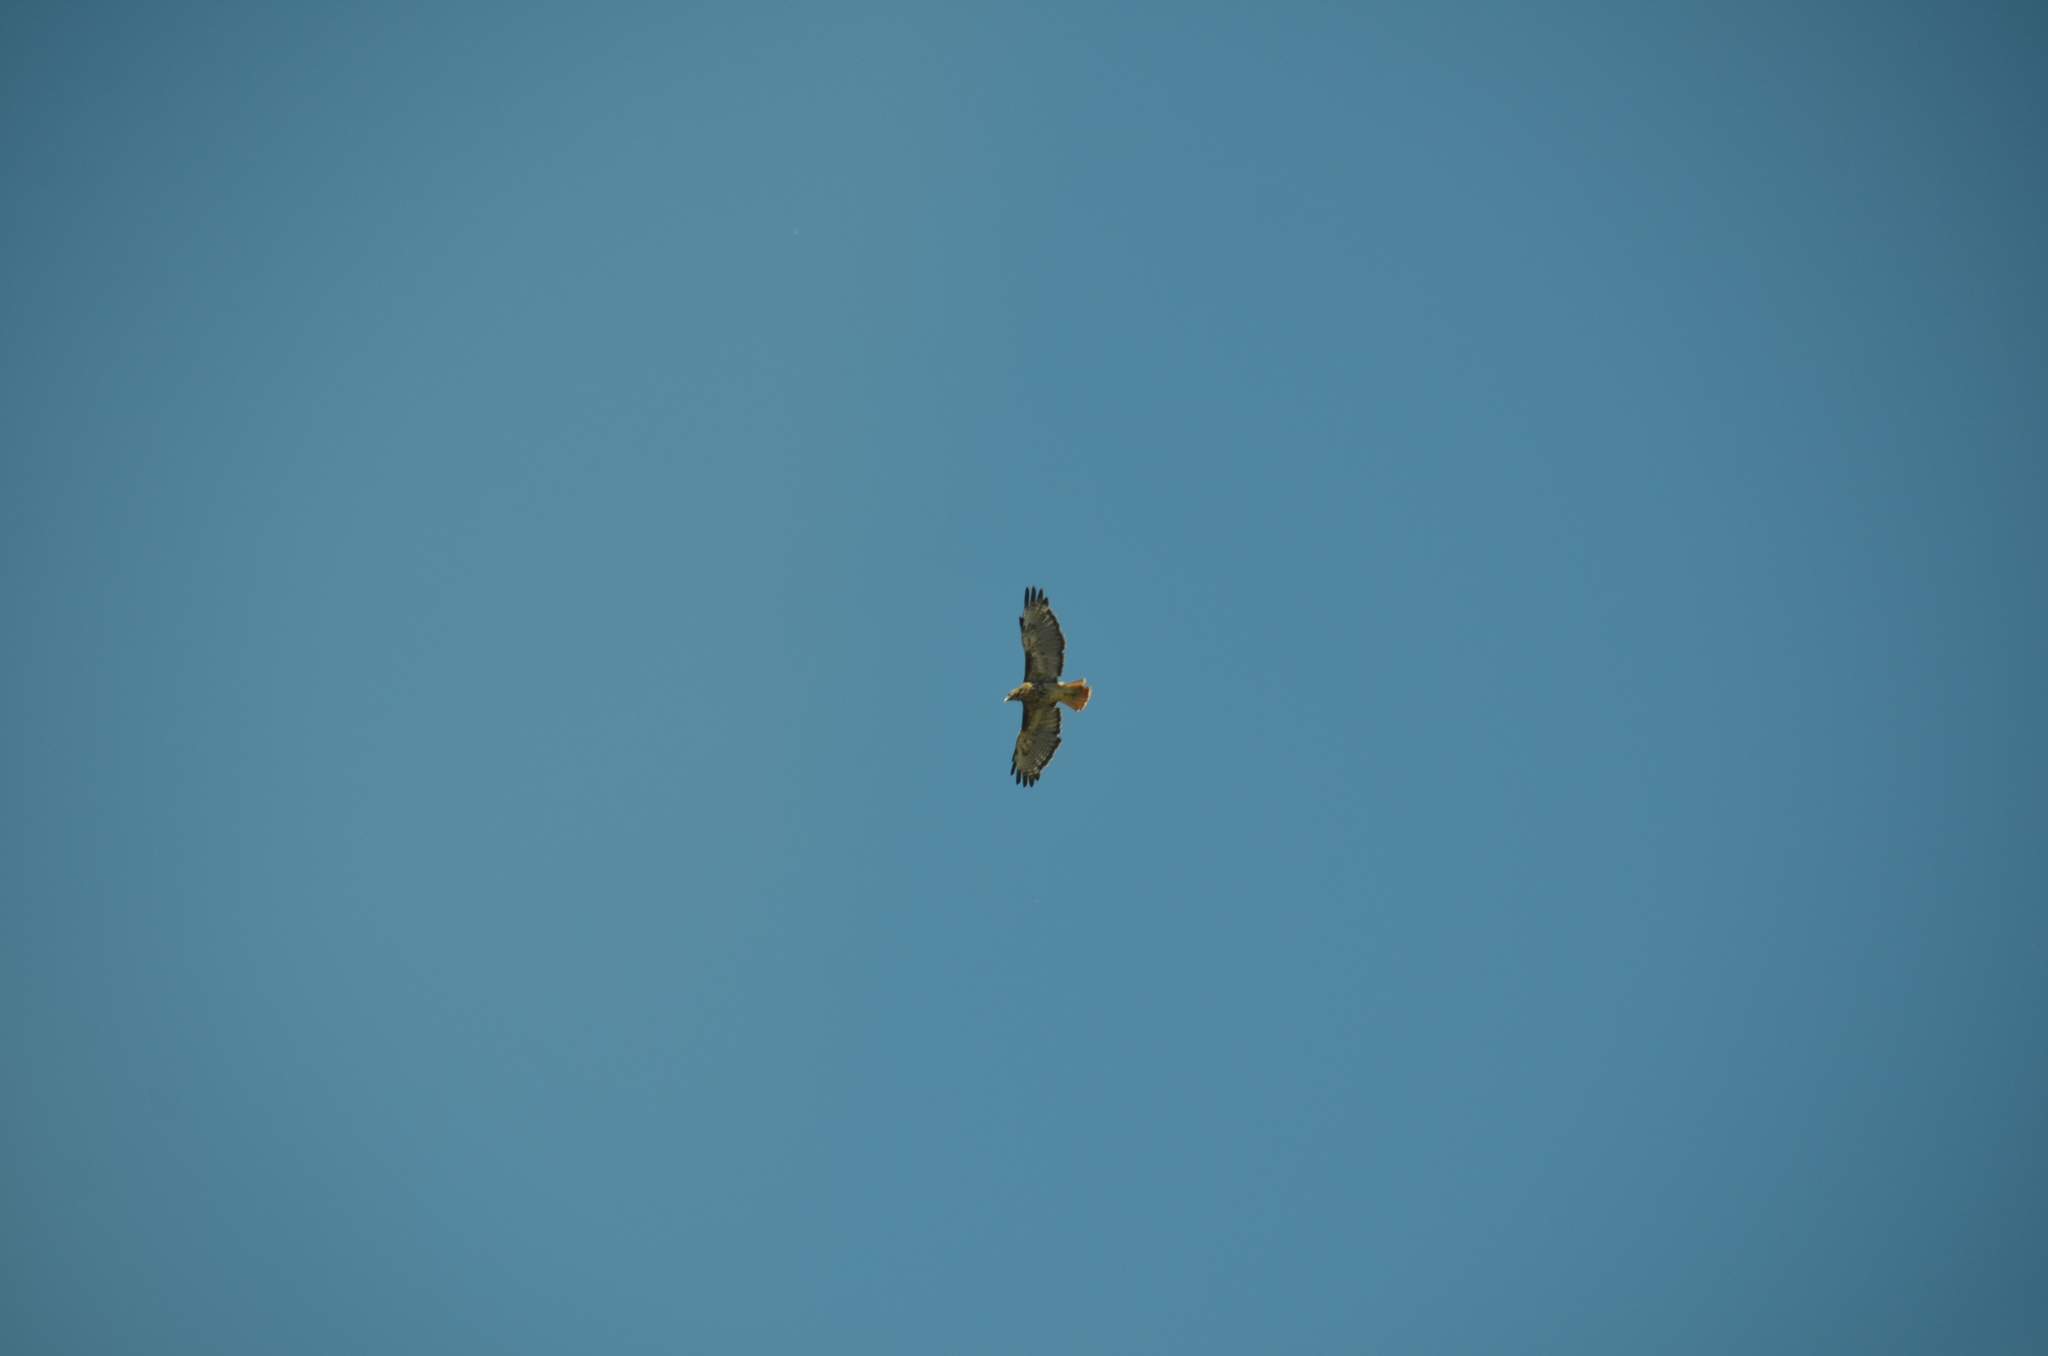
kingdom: Animalia
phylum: Chordata
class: Aves
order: Accipitriformes
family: Accipitridae
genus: Buteo
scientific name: Buteo jamaicensis
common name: Red-tailed hawk
